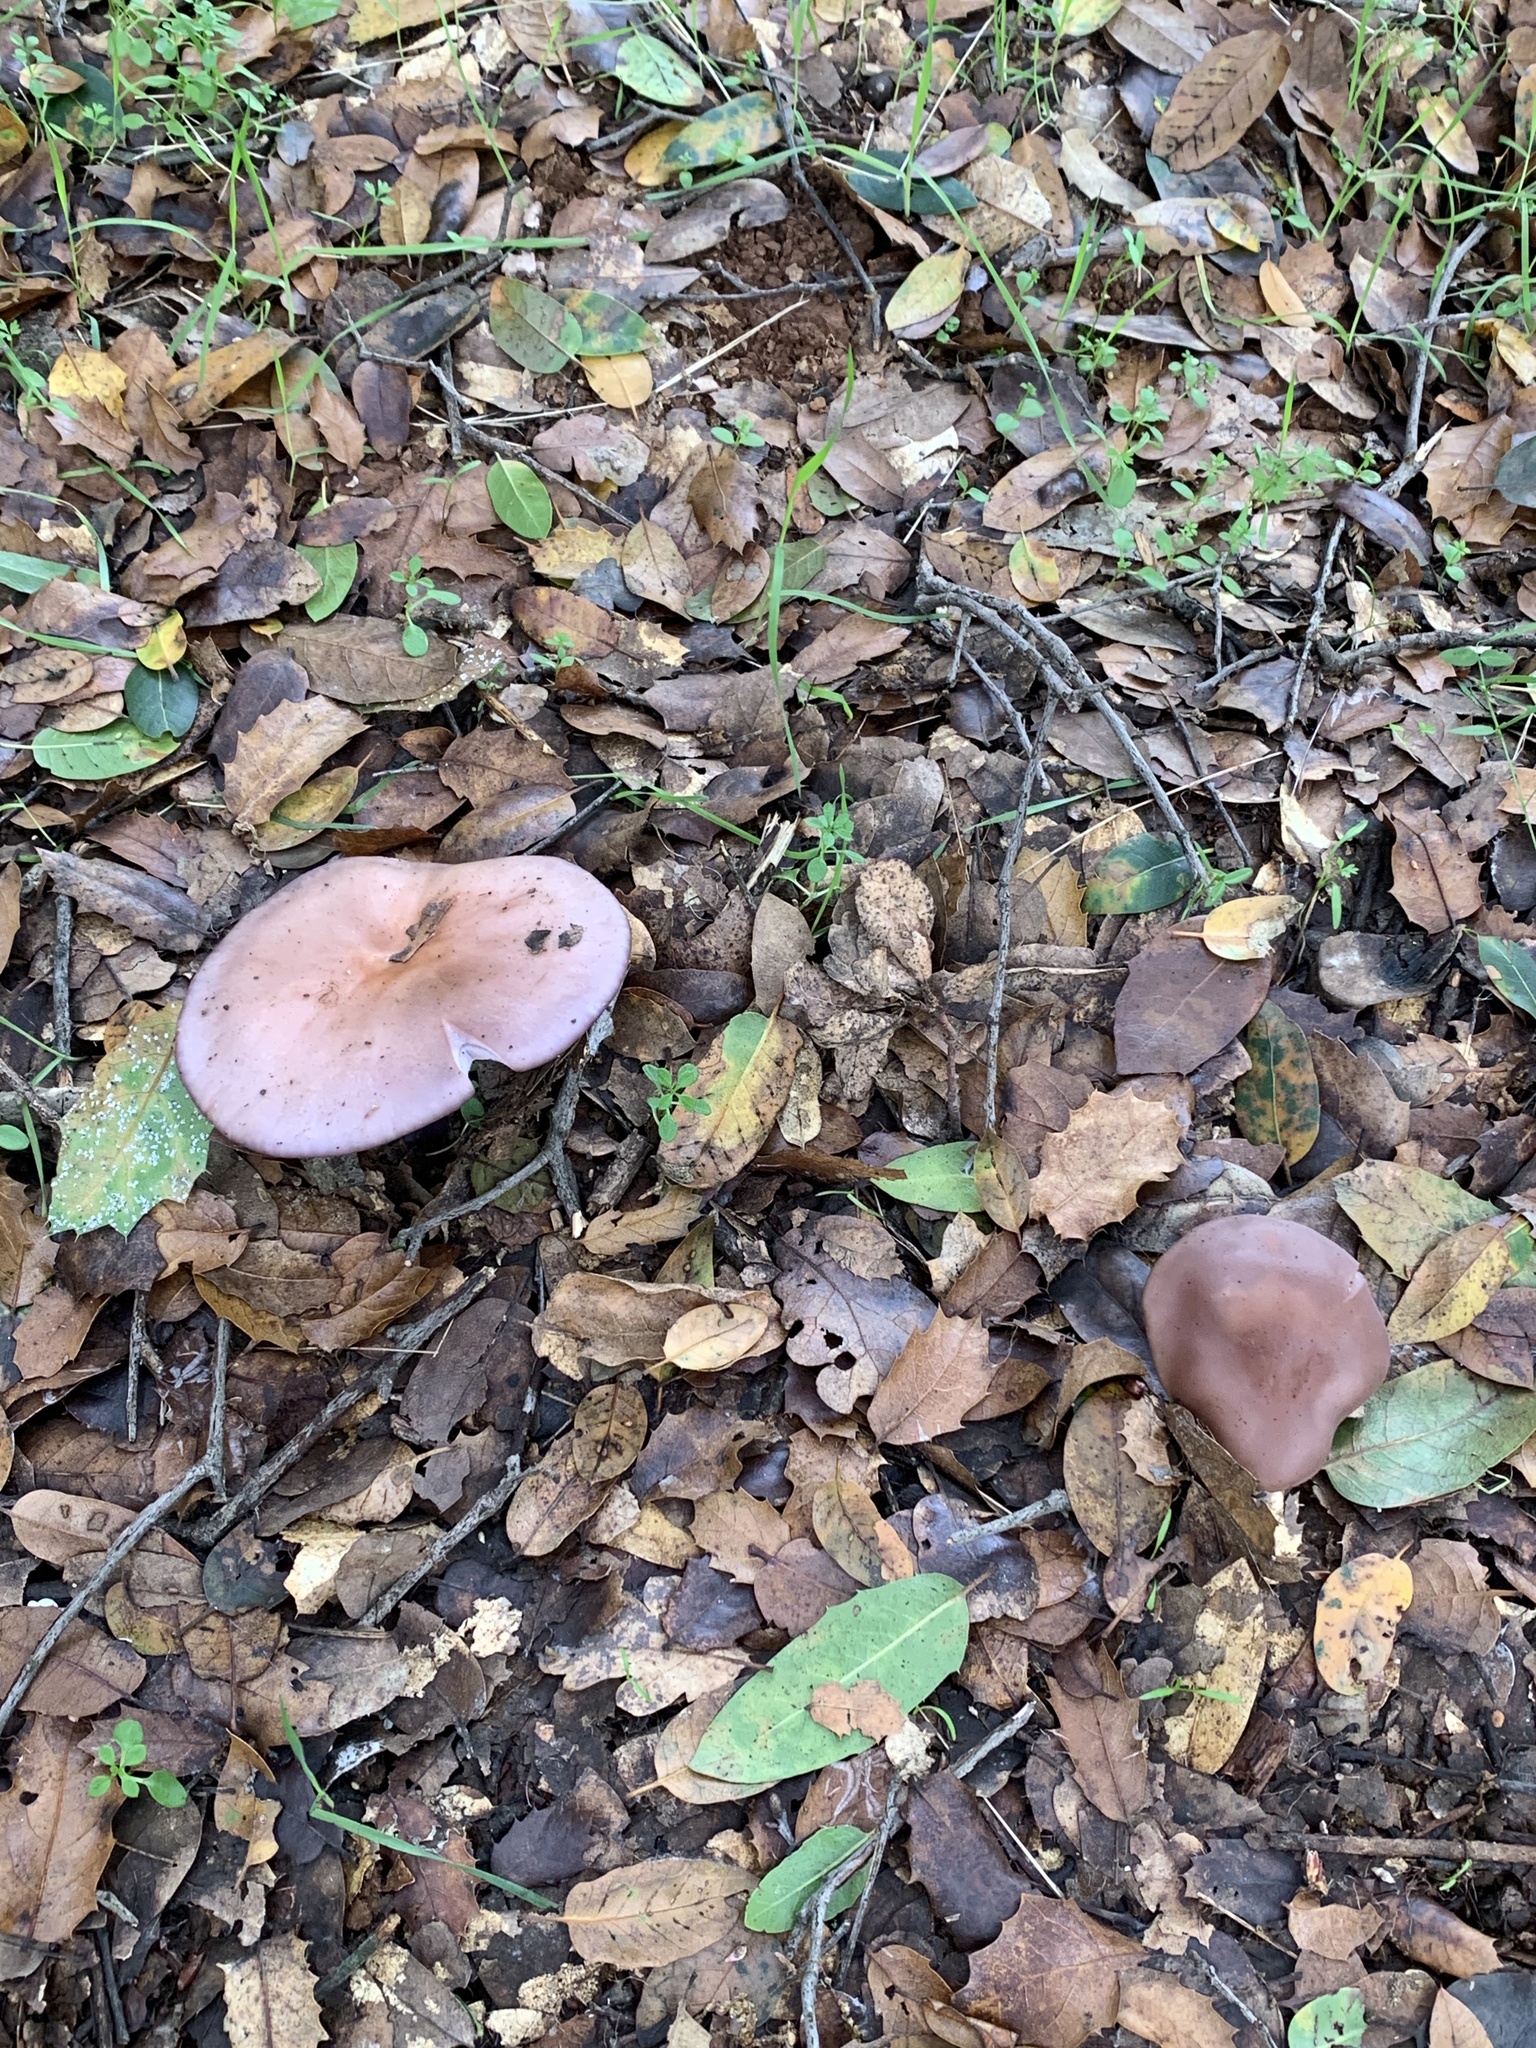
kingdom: Fungi
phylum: Basidiomycota
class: Agaricomycetes
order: Agaricales
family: Tricholomataceae
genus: Collybia
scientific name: Collybia
